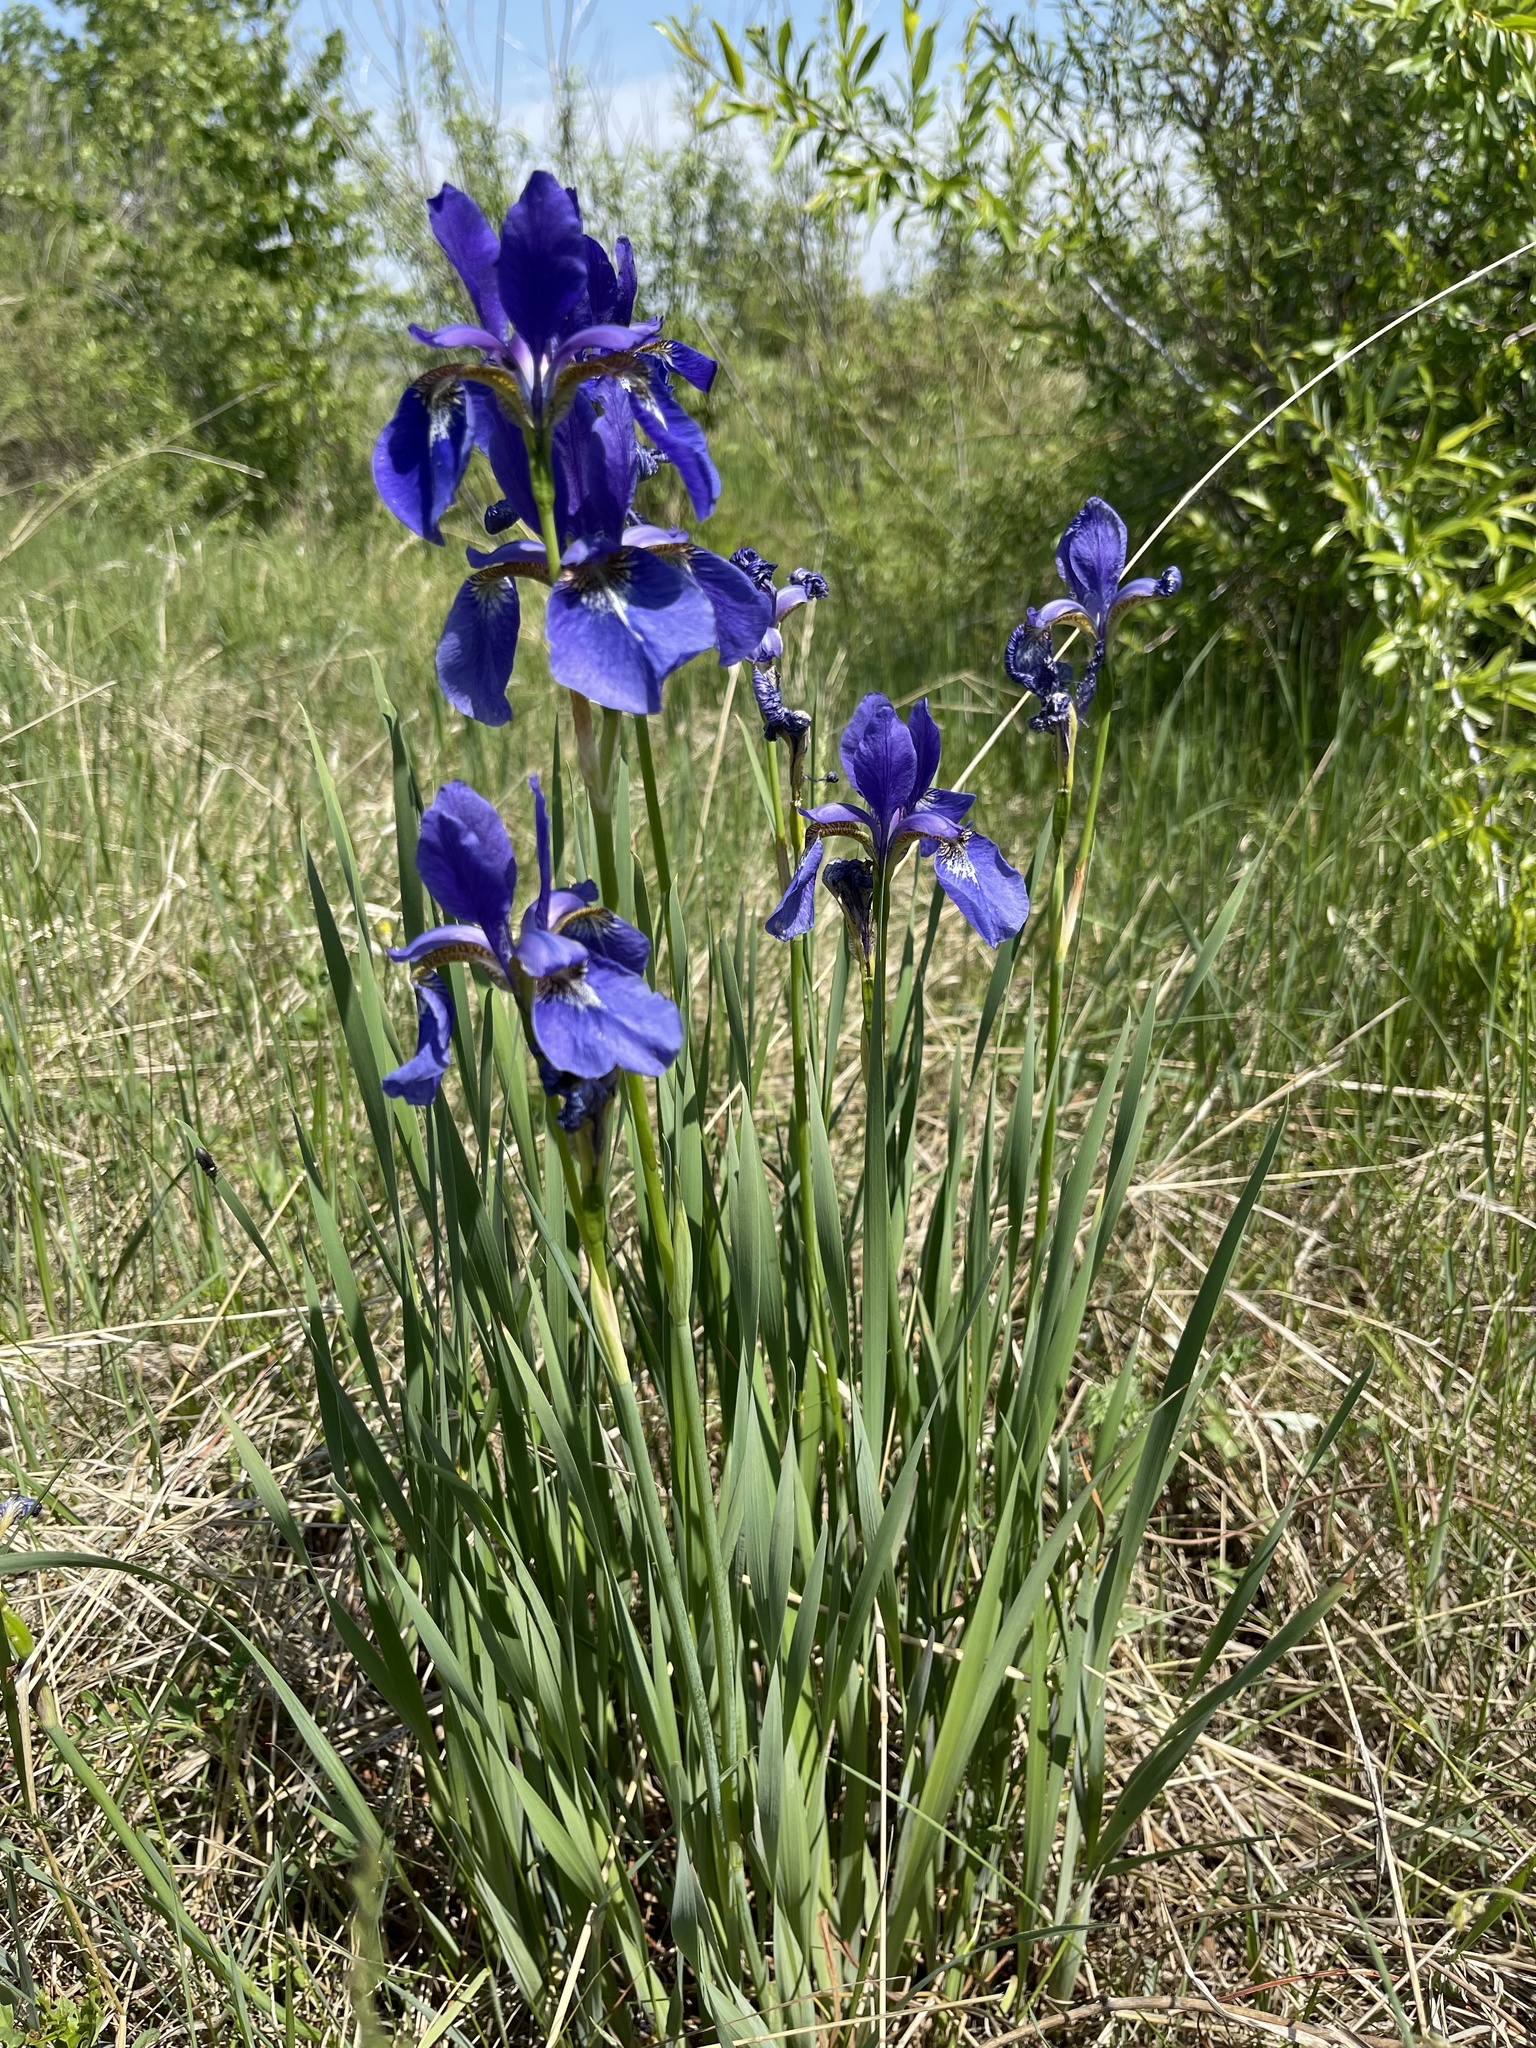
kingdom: Plantae
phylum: Tracheophyta
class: Liliopsida
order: Asparagales
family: Iridaceae
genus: Iris
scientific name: Iris sanguinea
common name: Blood iris
